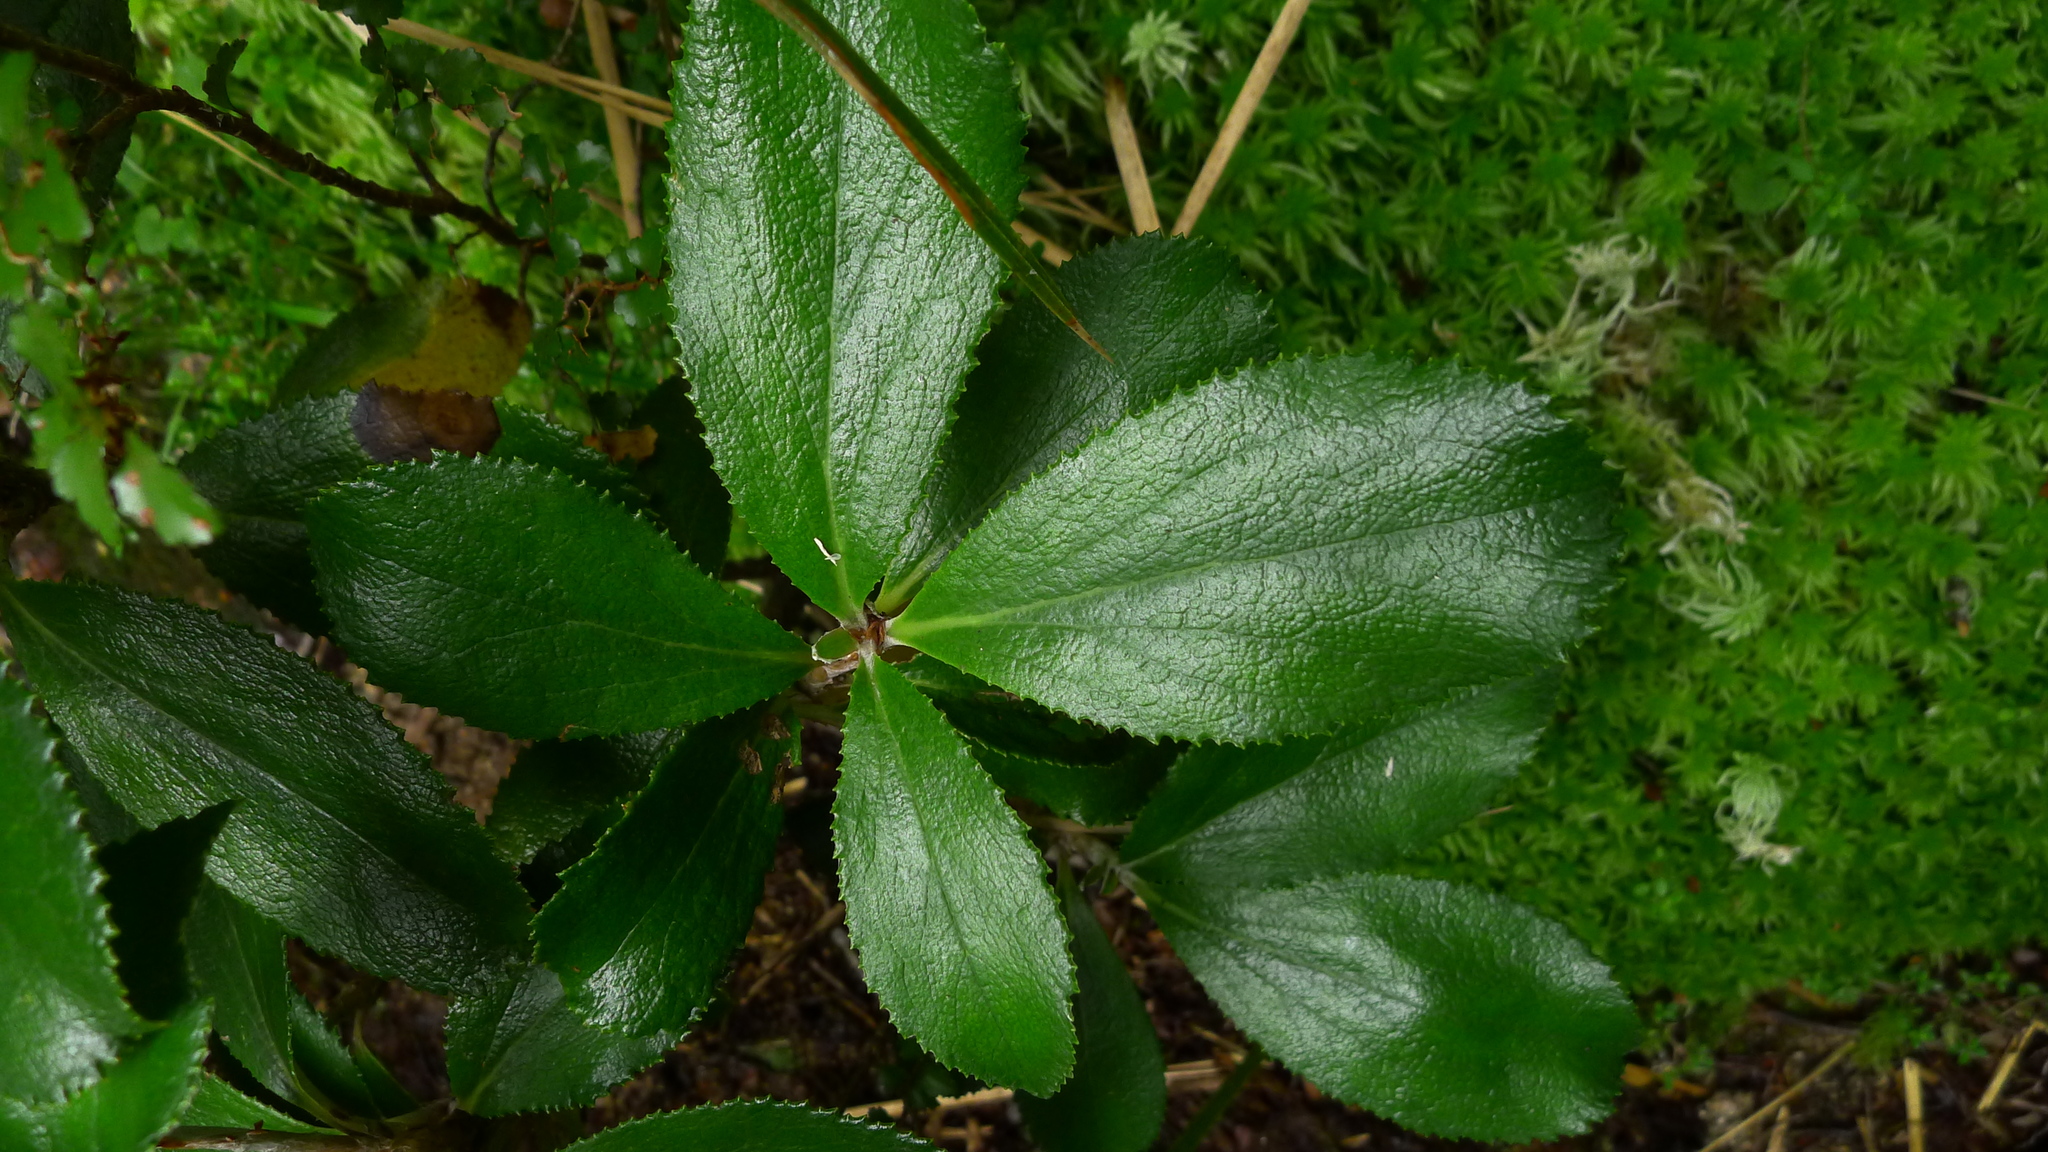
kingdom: Plantae
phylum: Tracheophyta
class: Magnoliopsida
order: Asterales
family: Asteraceae
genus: Macrolearia
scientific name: Macrolearia colensoi
